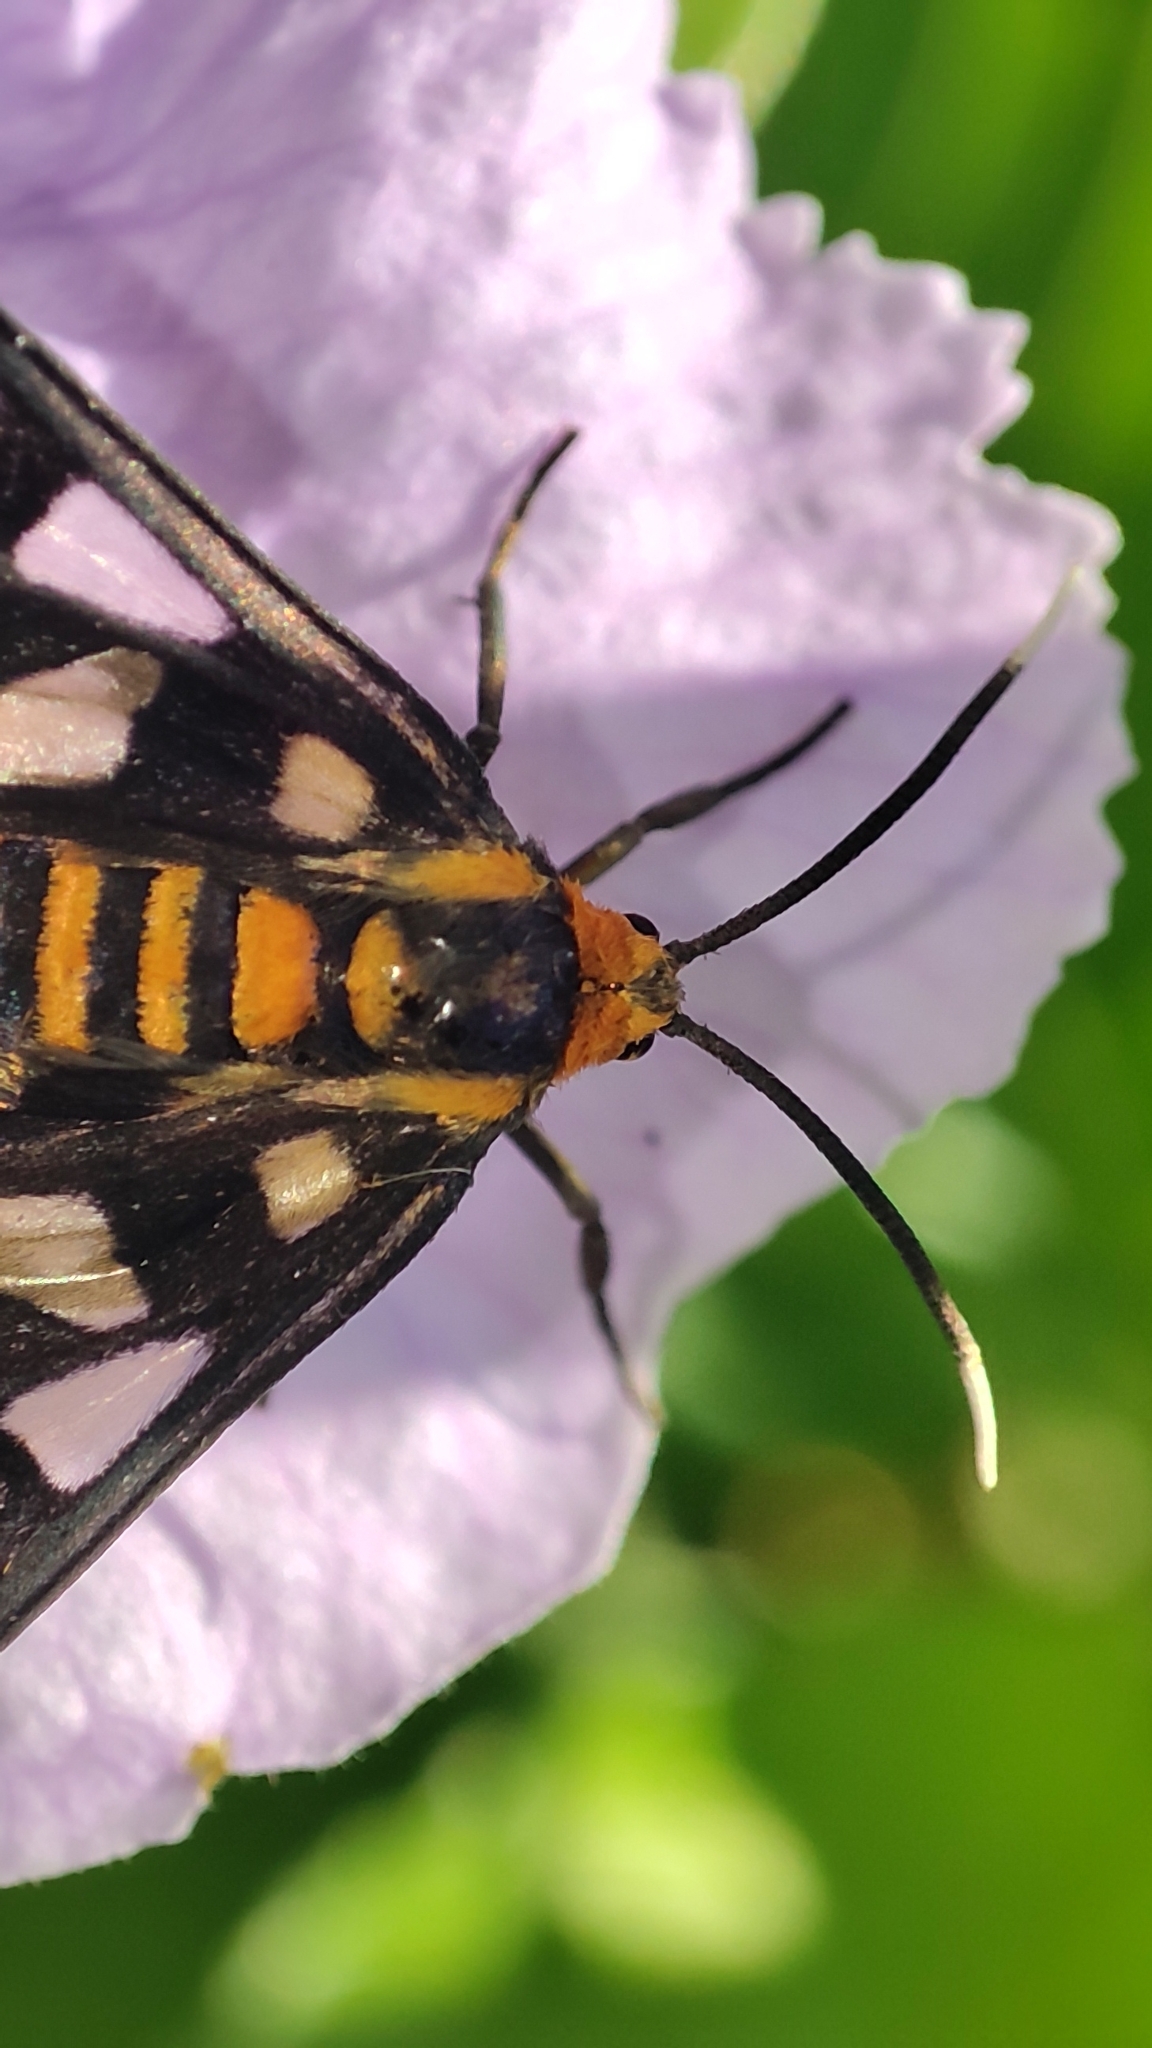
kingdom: Animalia
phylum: Arthropoda
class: Insecta
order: Lepidoptera
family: Erebidae
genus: Amata
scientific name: Amata huebneri
